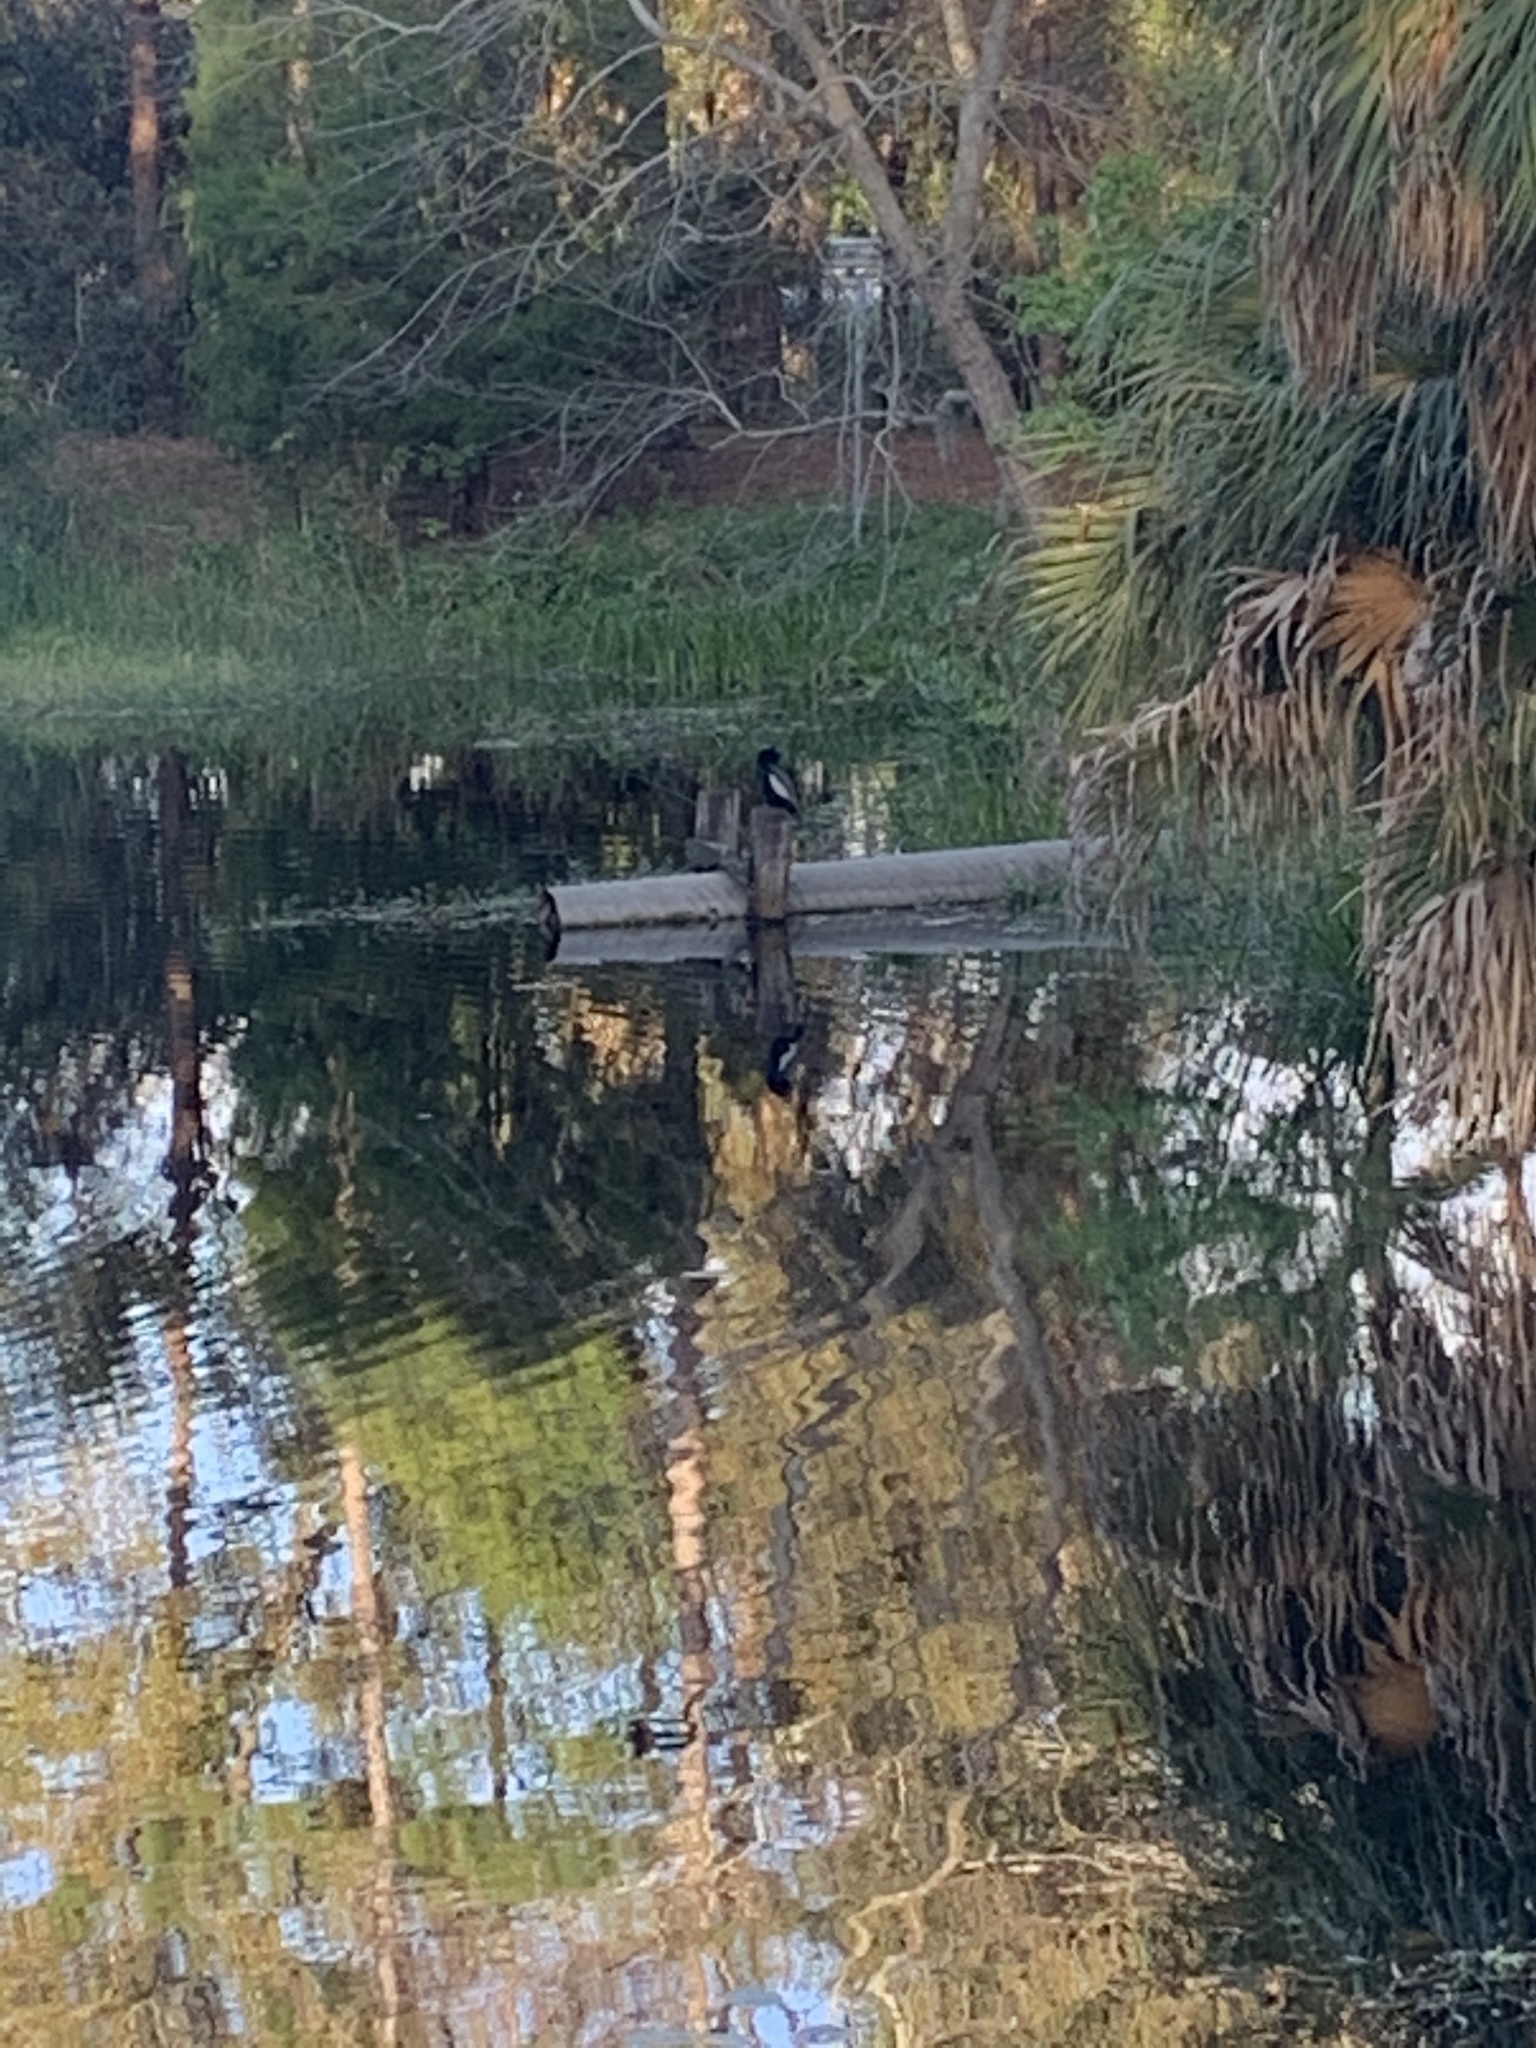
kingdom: Animalia
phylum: Chordata
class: Aves
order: Suliformes
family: Anhingidae
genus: Anhinga
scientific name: Anhinga anhinga
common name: Anhinga
